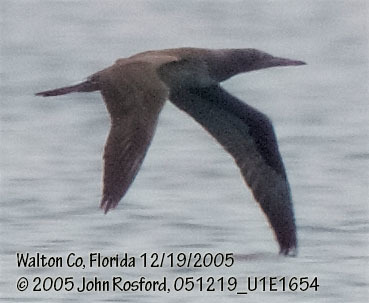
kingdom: Animalia
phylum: Chordata
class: Aves
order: Suliformes
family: Sulidae
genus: Sula
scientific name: Sula leucogaster
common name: Brown booby
